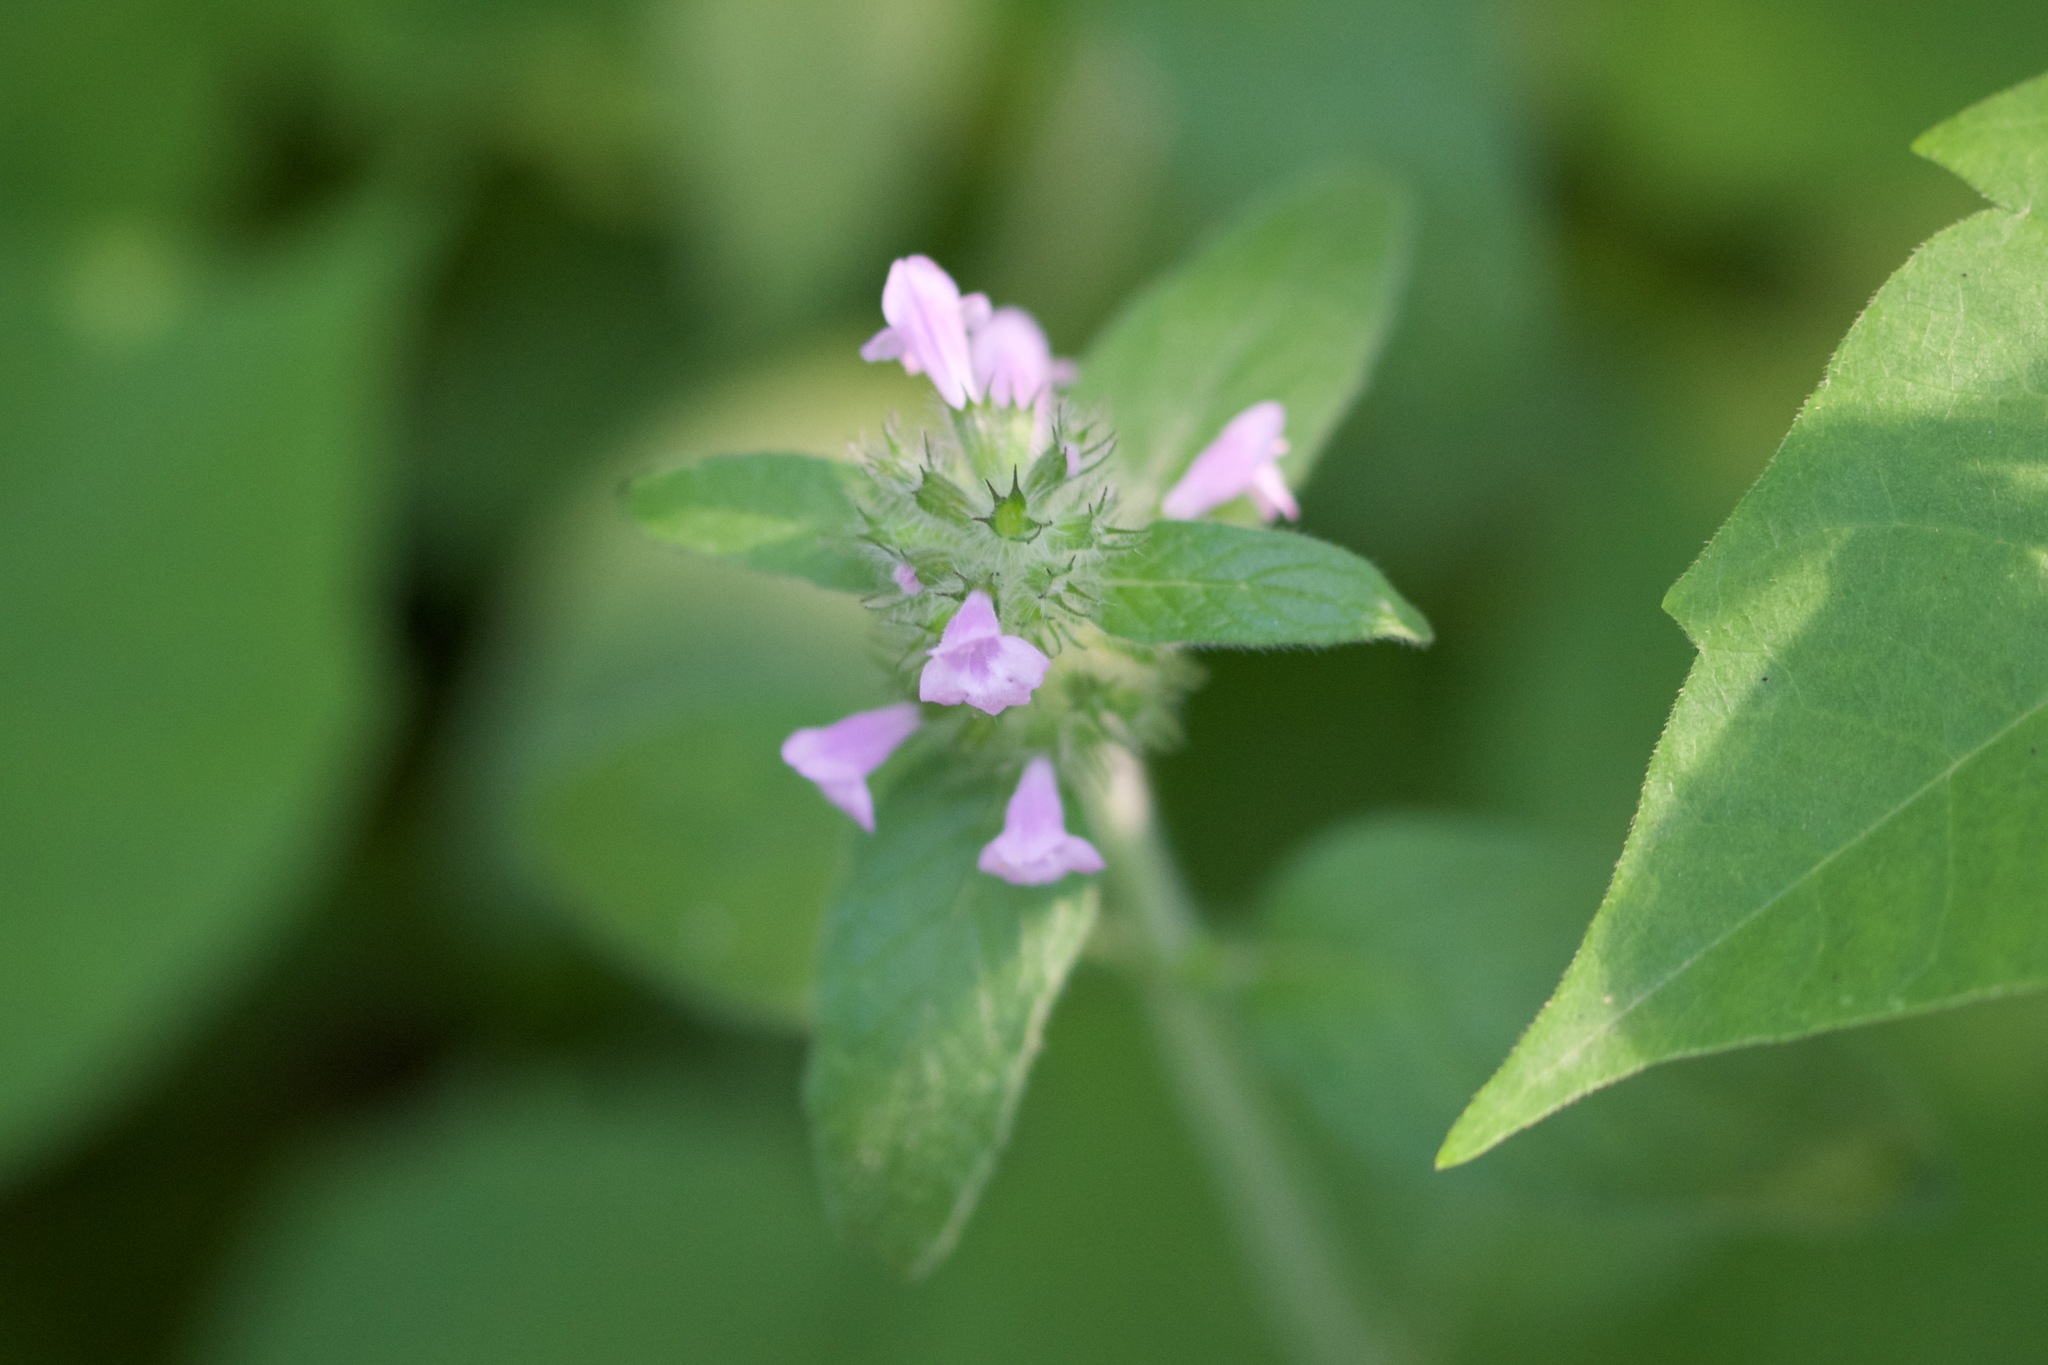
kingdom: Plantae
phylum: Tracheophyta
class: Magnoliopsida
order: Lamiales
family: Lamiaceae
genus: Clinopodium
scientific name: Clinopodium vulgare
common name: Wild basil
